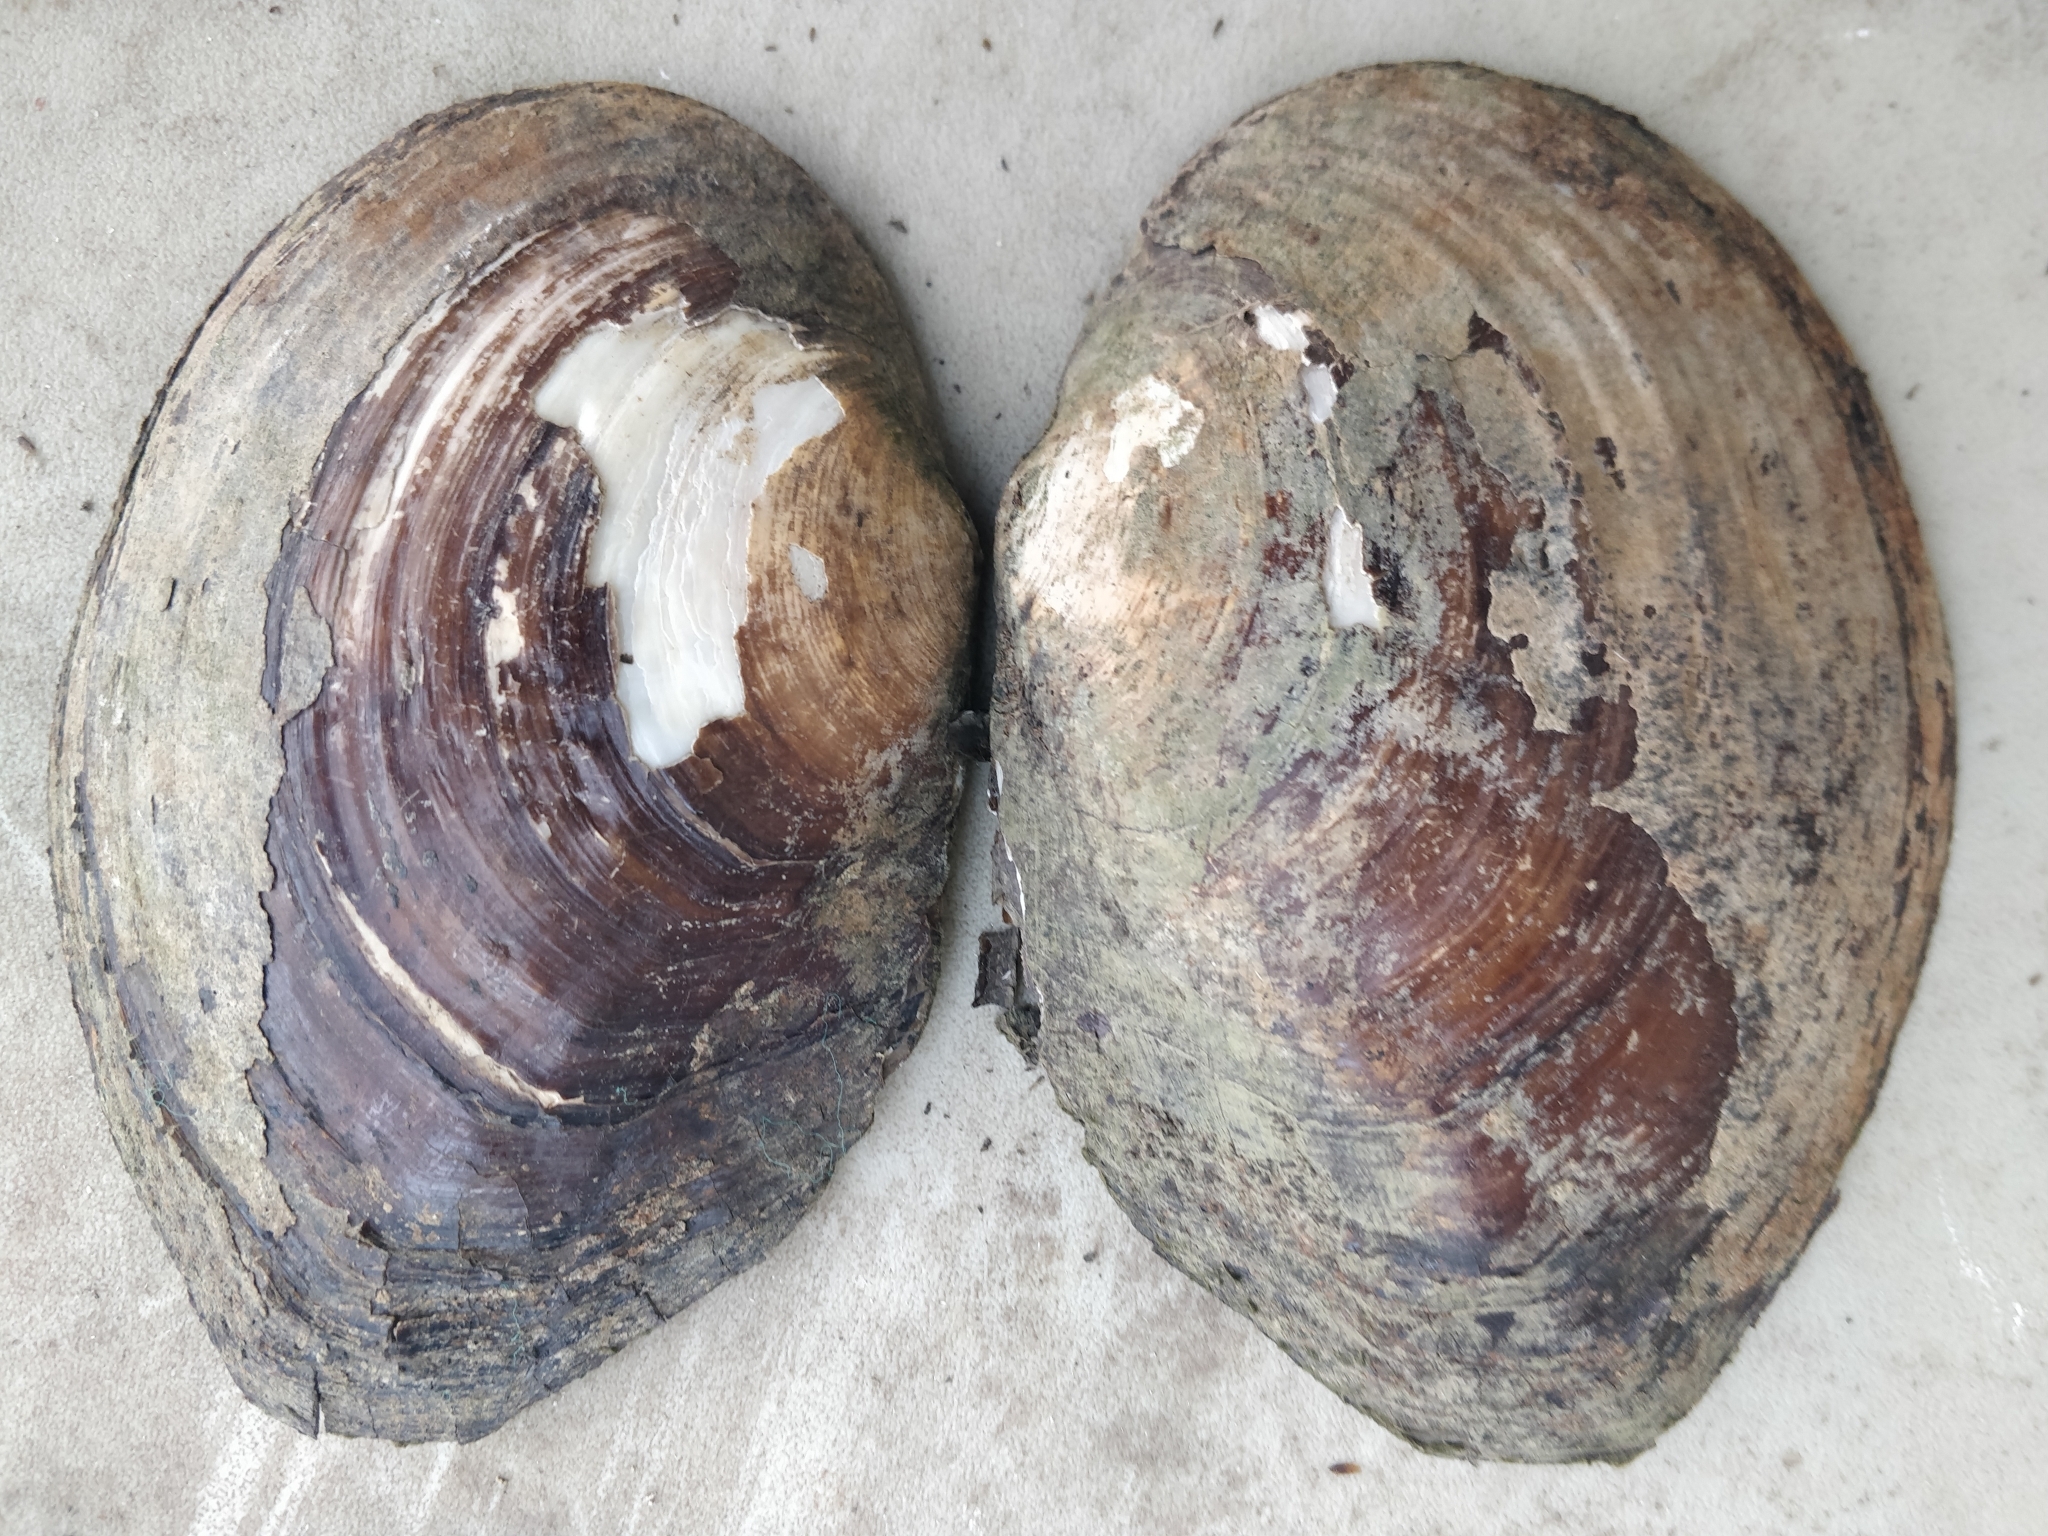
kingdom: Animalia
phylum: Mollusca
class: Bivalvia
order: Unionida
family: Unionidae
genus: Lasmigona
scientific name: Lasmigona complanata
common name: White heelsplitter
